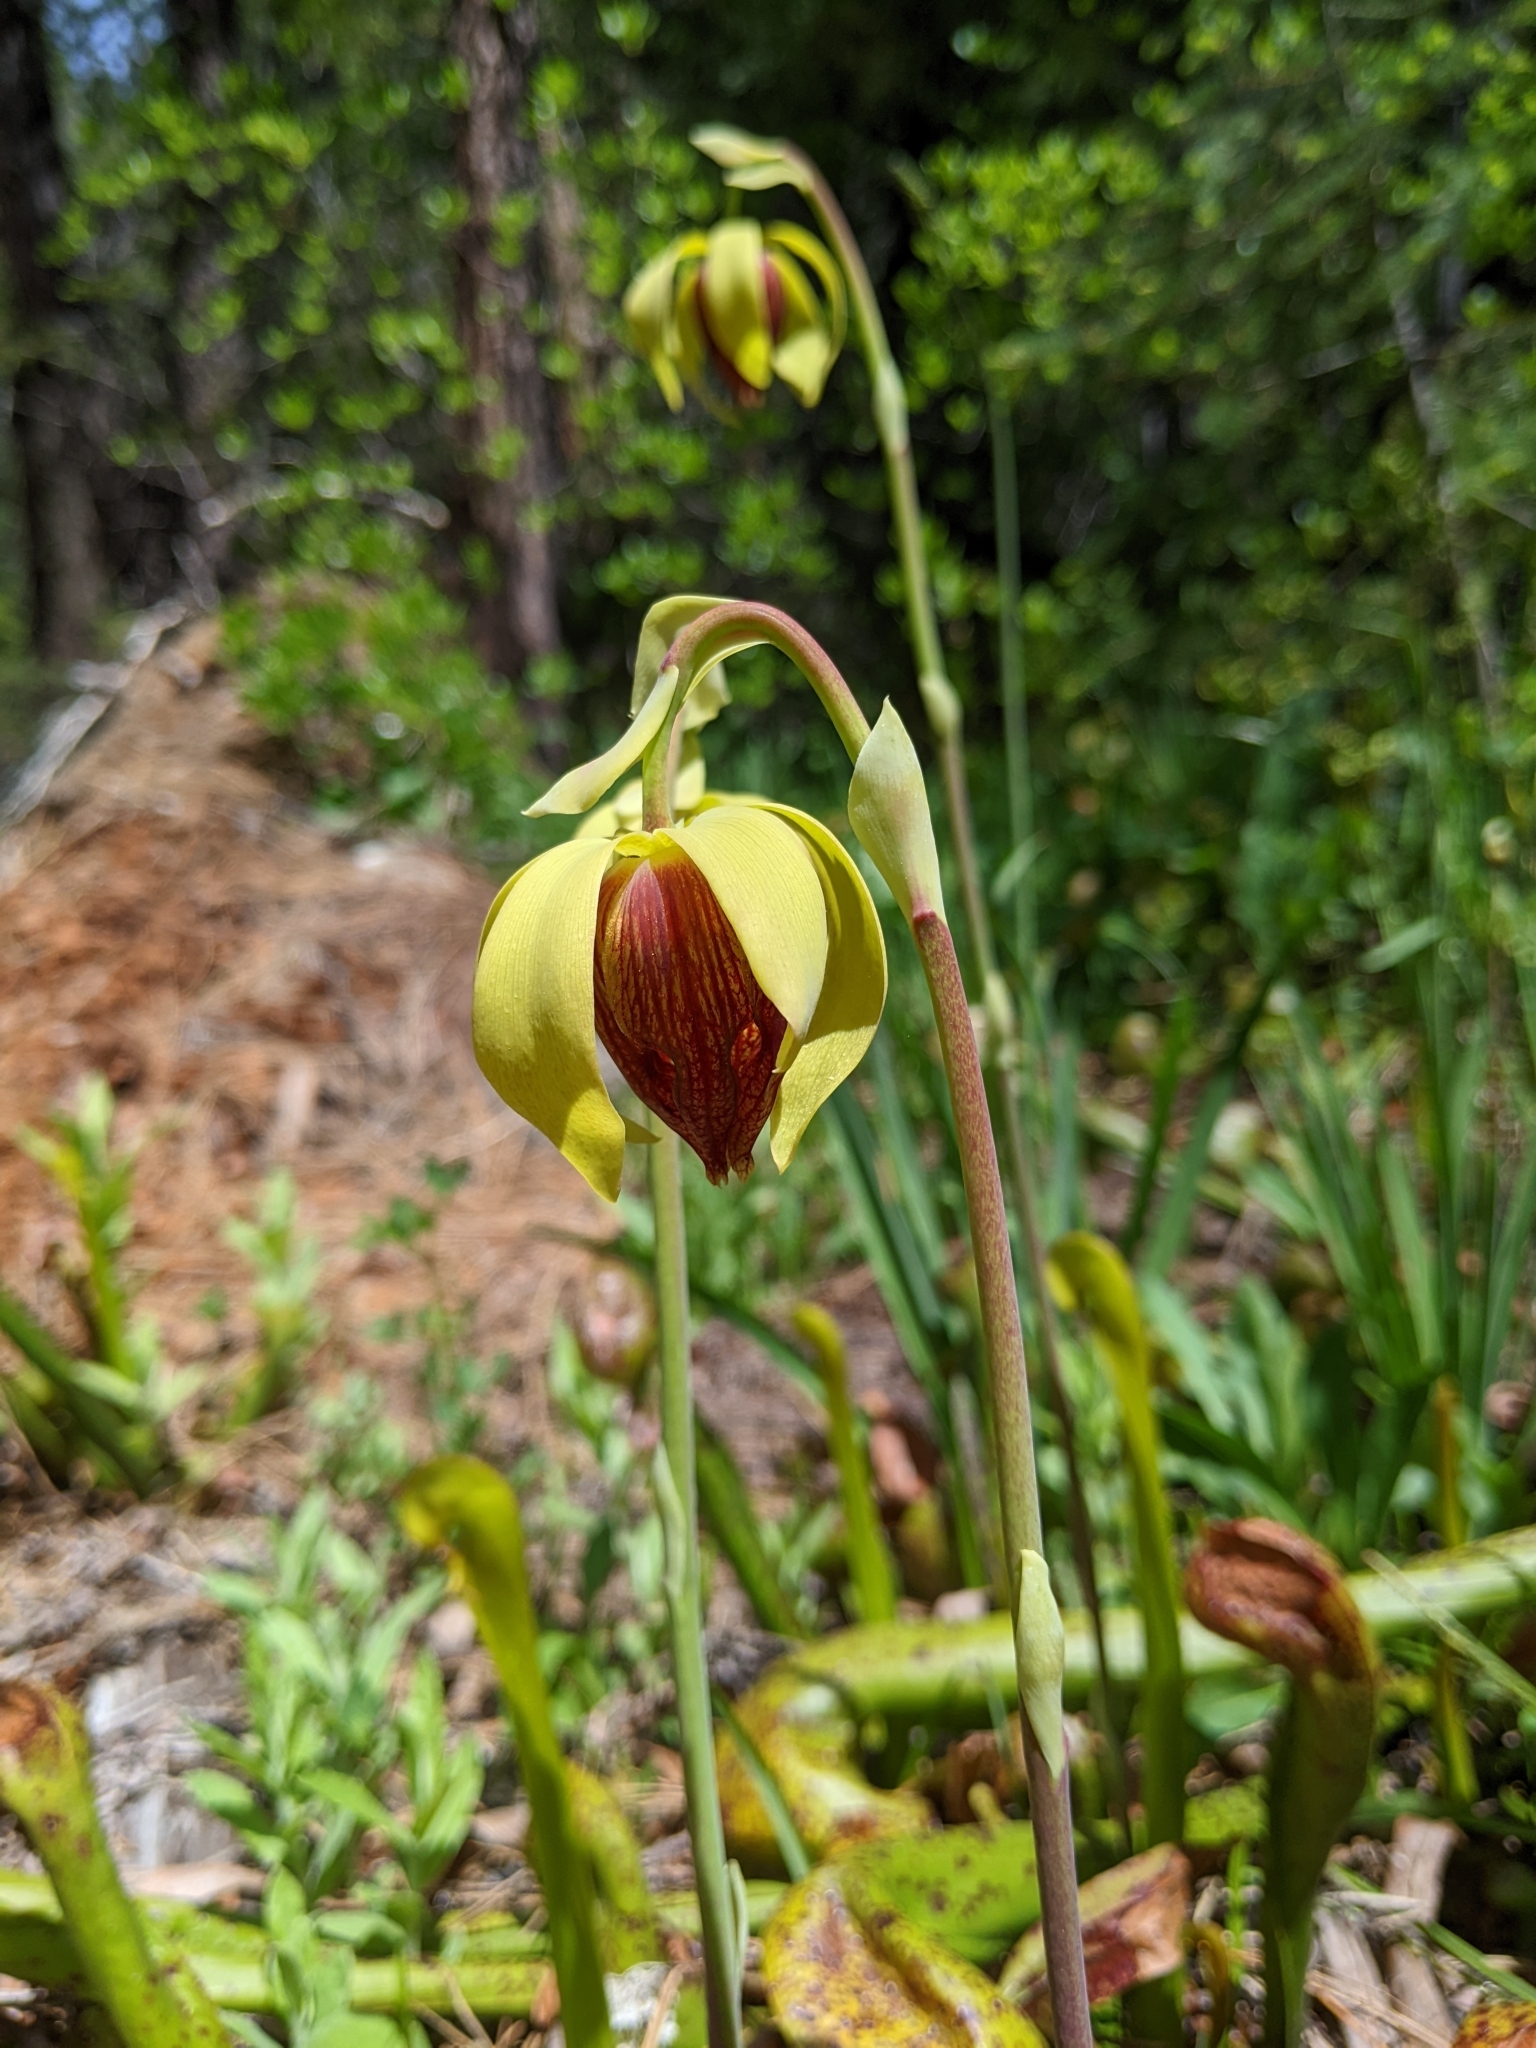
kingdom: Plantae
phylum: Tracheophyta
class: Magnoliopsida
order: Ericales
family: Sarraceniaceae
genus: Darlingtonia
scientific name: Darlingtonia californica
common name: California pitcher plant
